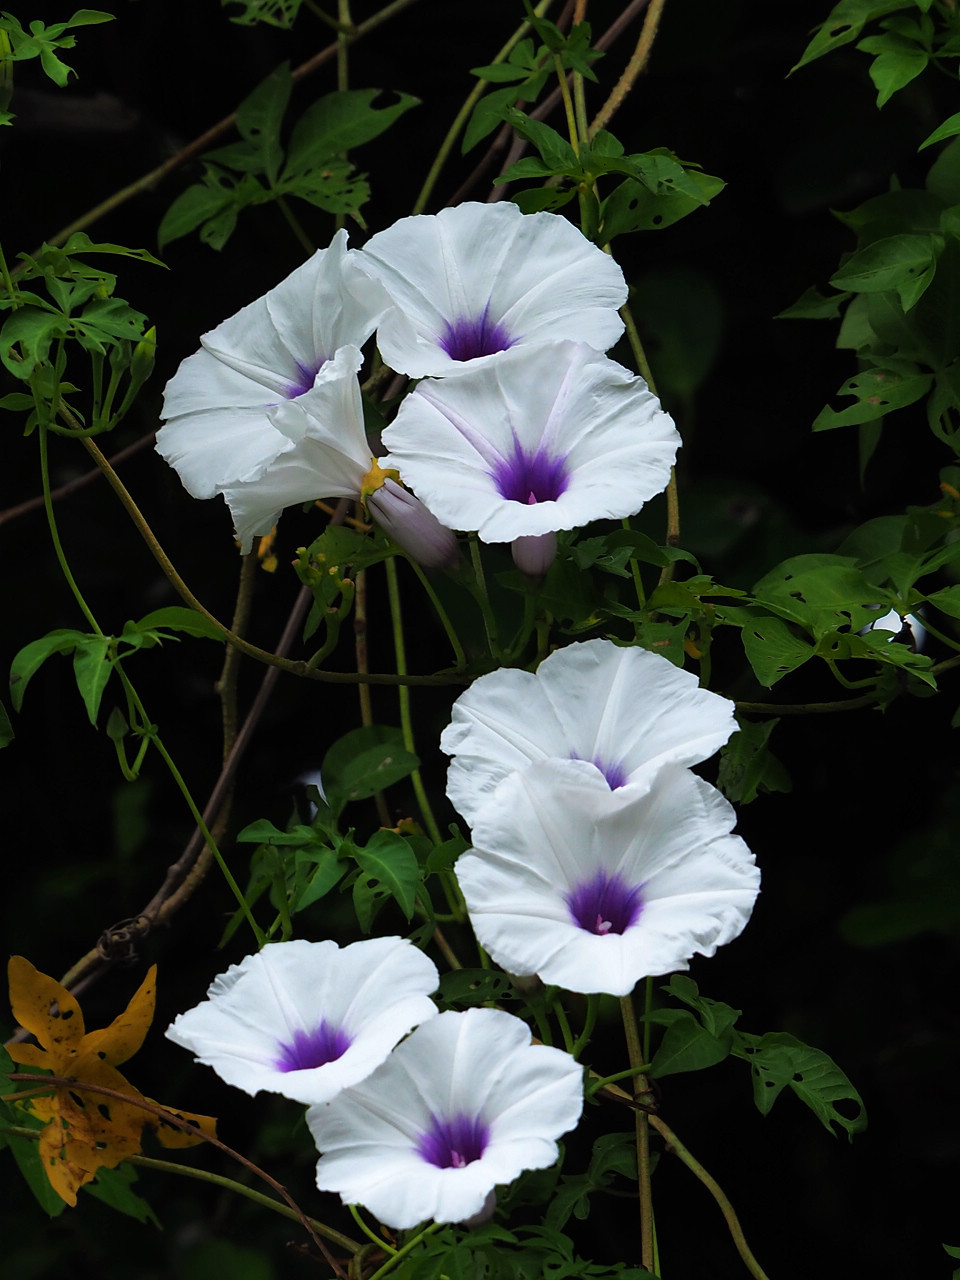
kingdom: Plantae
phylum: Tracheophyta
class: Magnoliopsida
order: Solanales
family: Convolvulaceae
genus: Ipomoea
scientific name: Ipomoea cairica
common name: Mile a minute vine
